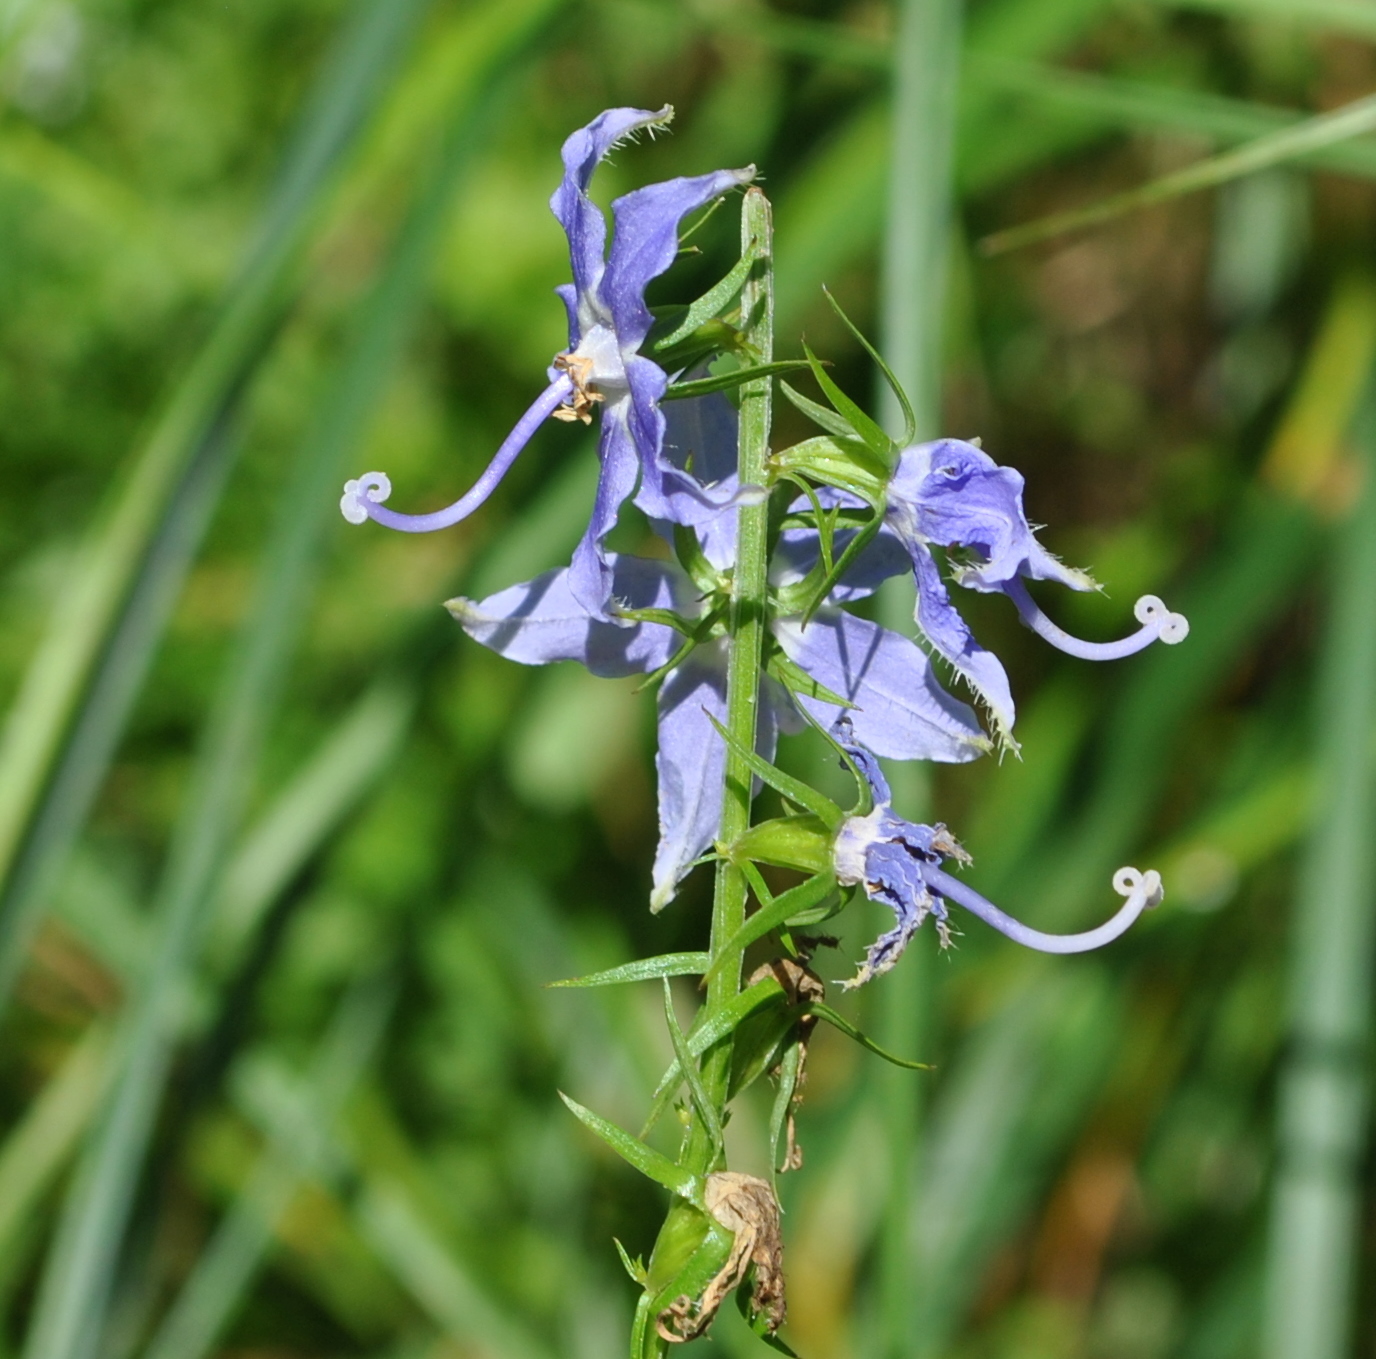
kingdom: Plantae
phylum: Tracheophyta
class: Magnoliopsida
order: Asterales
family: Campanulaceae
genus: Campanulastrum
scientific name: Campanulastrum americanum
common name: American bellflower
